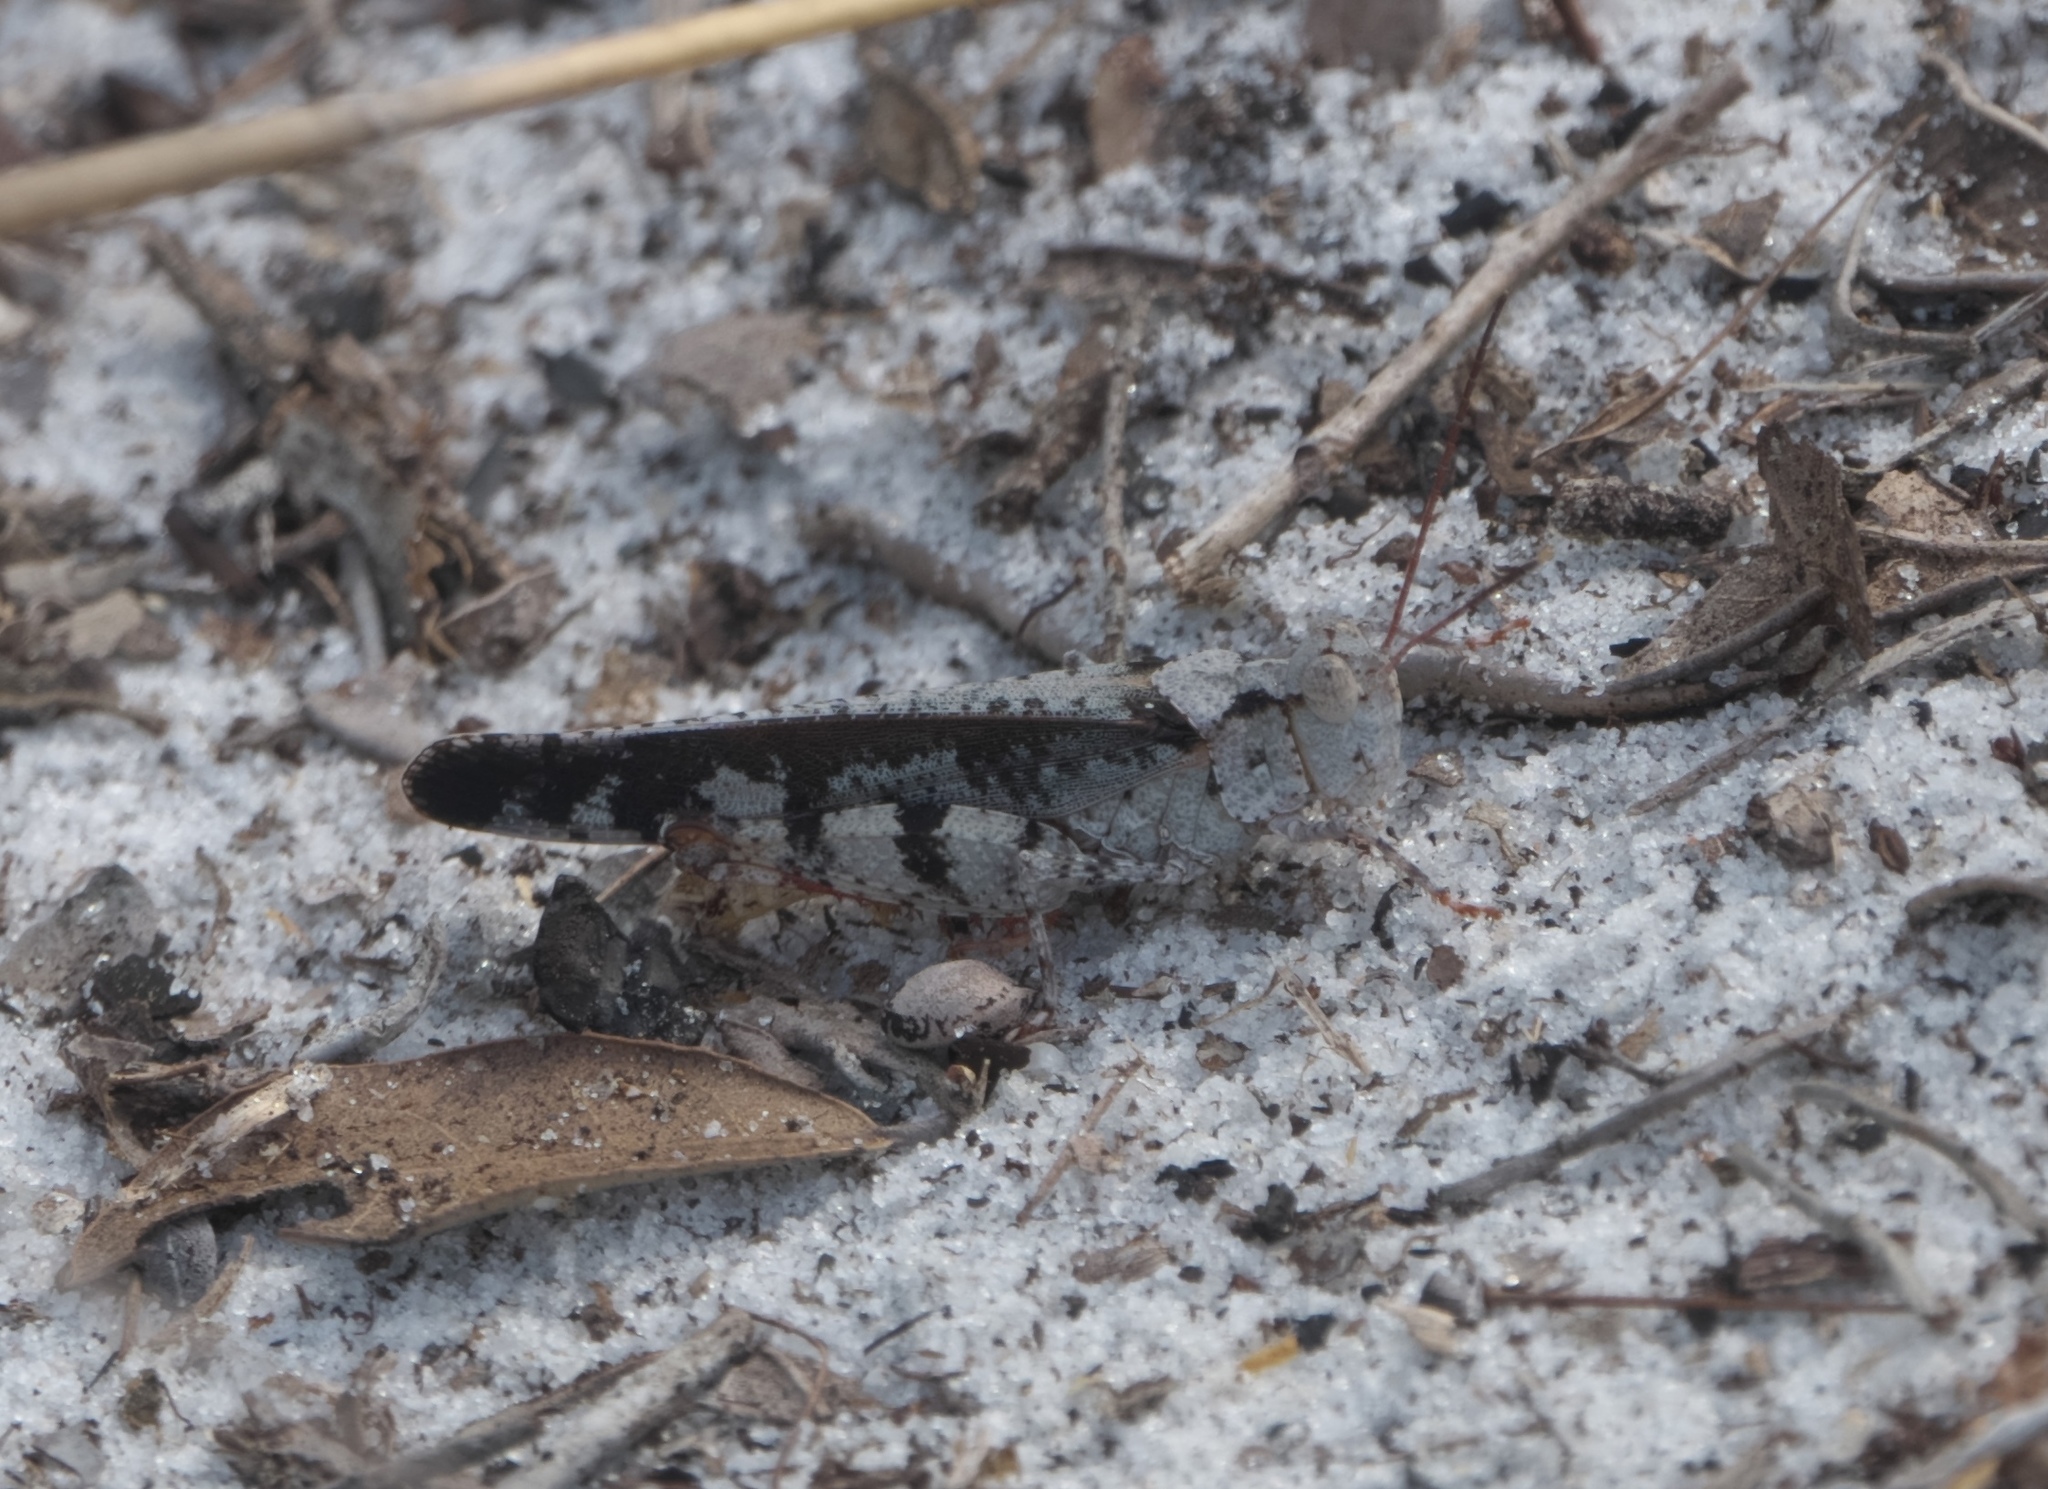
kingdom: Animalia
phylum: Arthropoda
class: Insecta
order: Orthoptera
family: Acrididae
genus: Spharagemon
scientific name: Spharagemon marmoratum
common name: Marbled grasshopper
